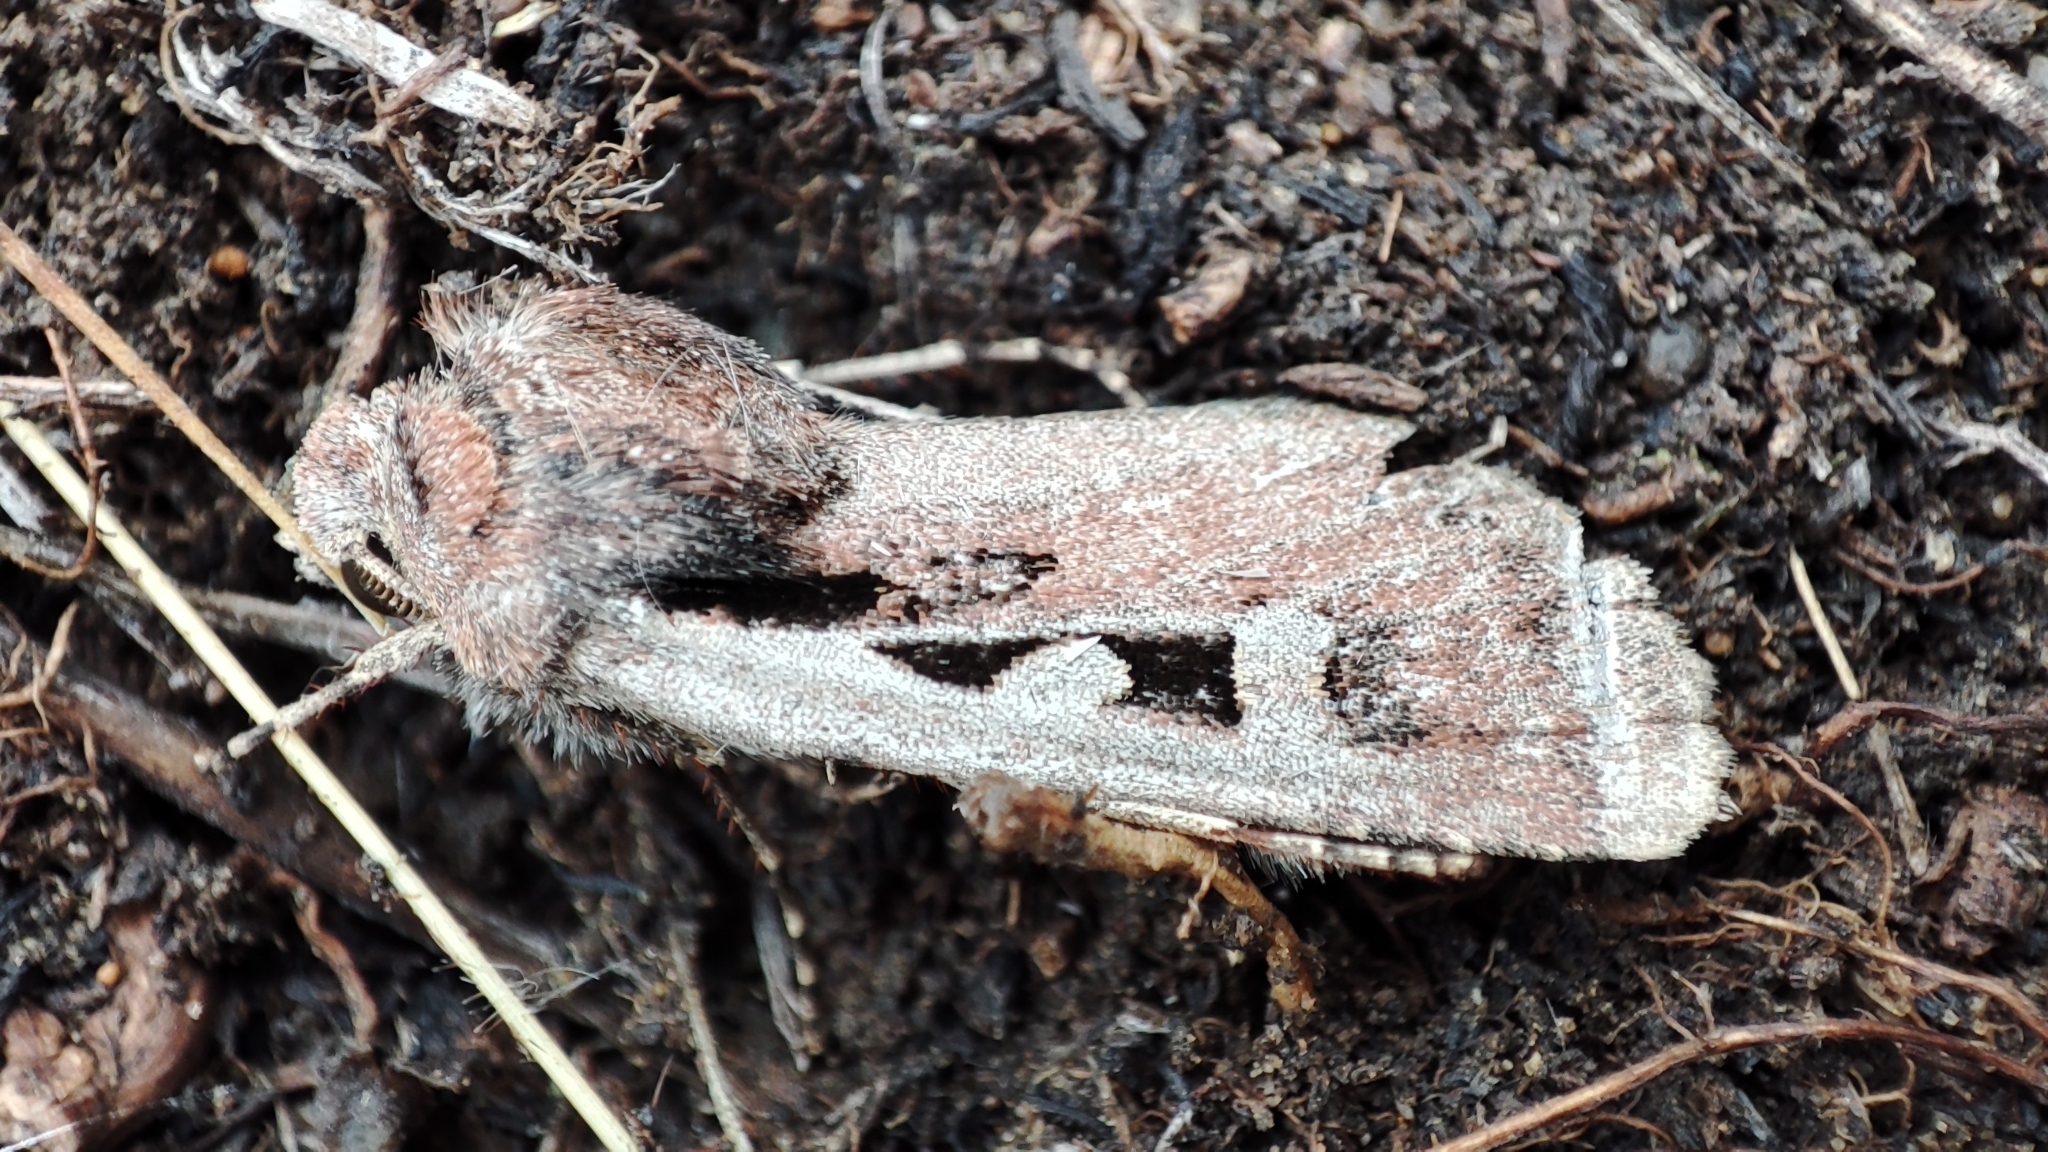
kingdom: Animalia
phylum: Arthropoda
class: Insecta
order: Lepidoptera
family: Noctuidae
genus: Euxoa
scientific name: Euxoa basigramma
